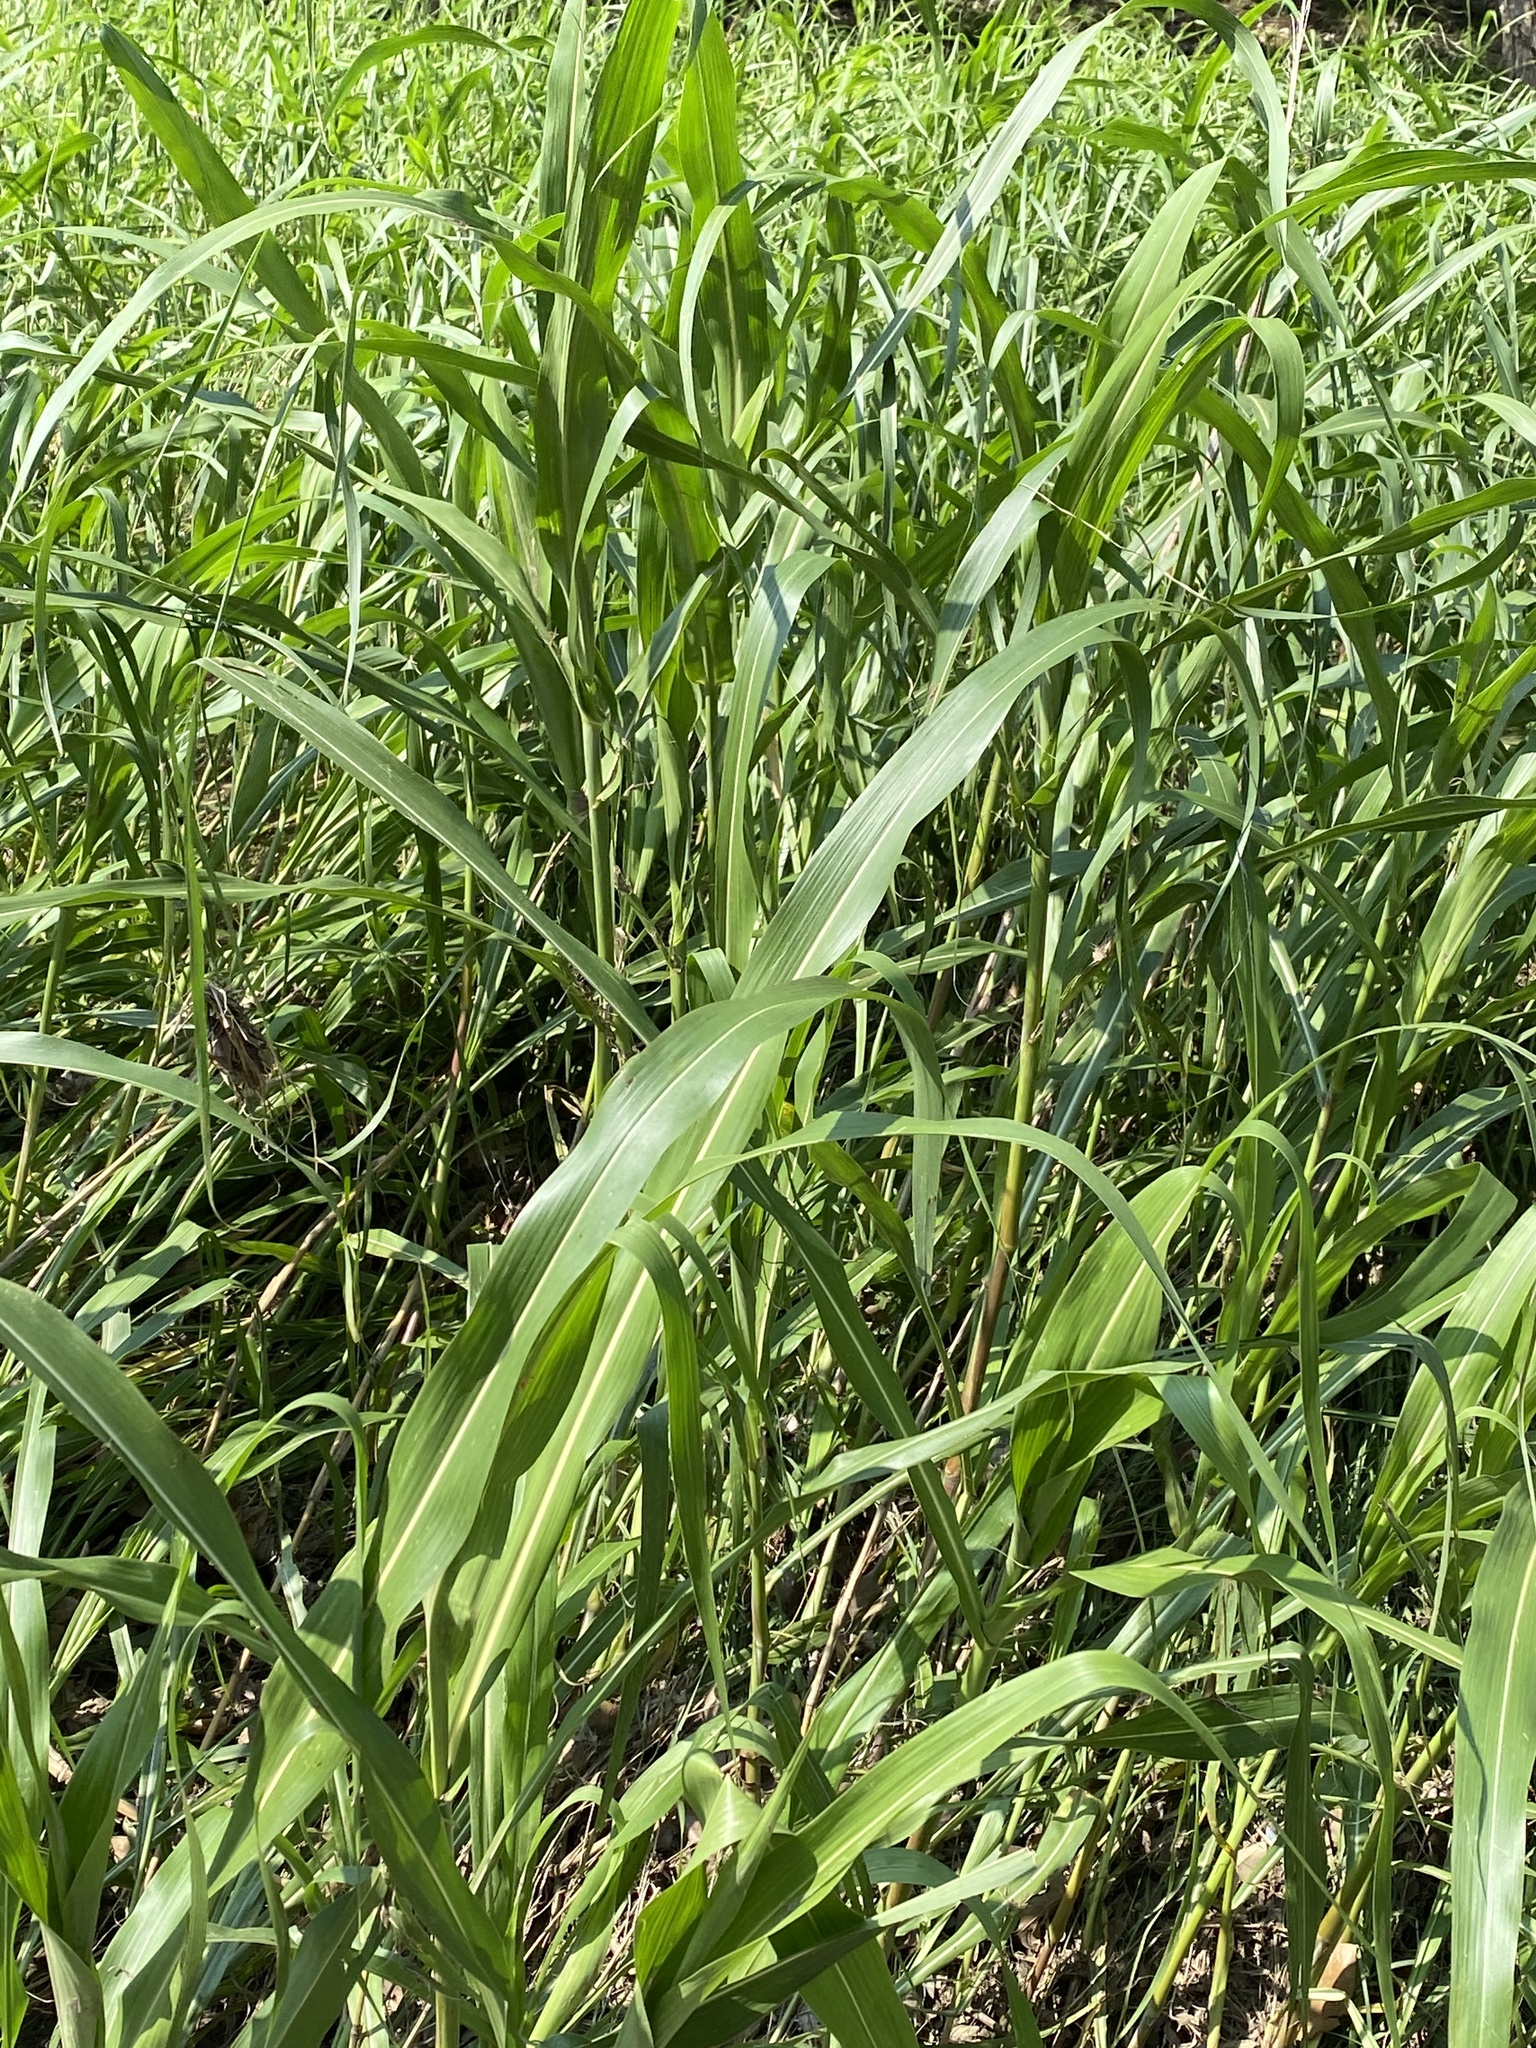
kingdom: Plantae
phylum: Tracheophyta
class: Liliopsida
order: Poales
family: Poaceae
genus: Sorghum
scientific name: Sorghum halepense
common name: Johnson-grass
